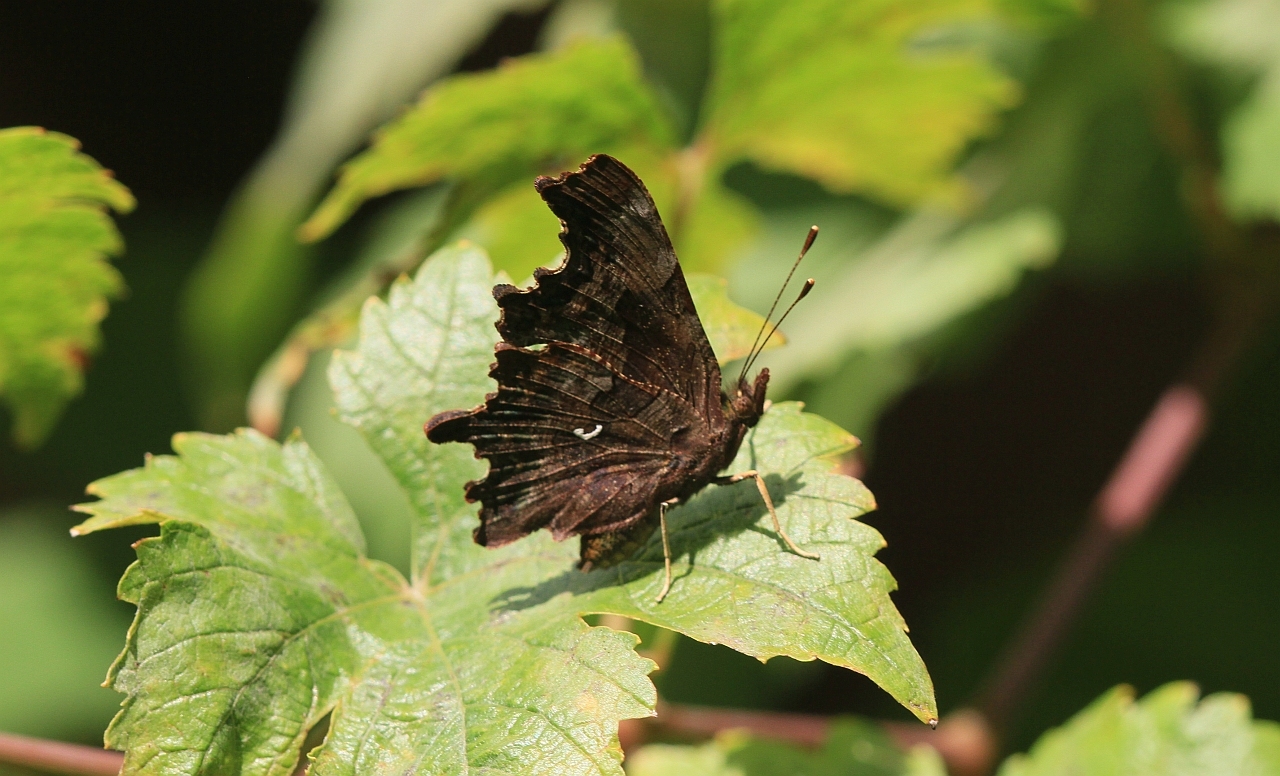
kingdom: Animalia
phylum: Arthropoda
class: Insecta
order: Lepidoptera
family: Nymphalidae
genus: Polygonia
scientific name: Polygonia c-album
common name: Comma
